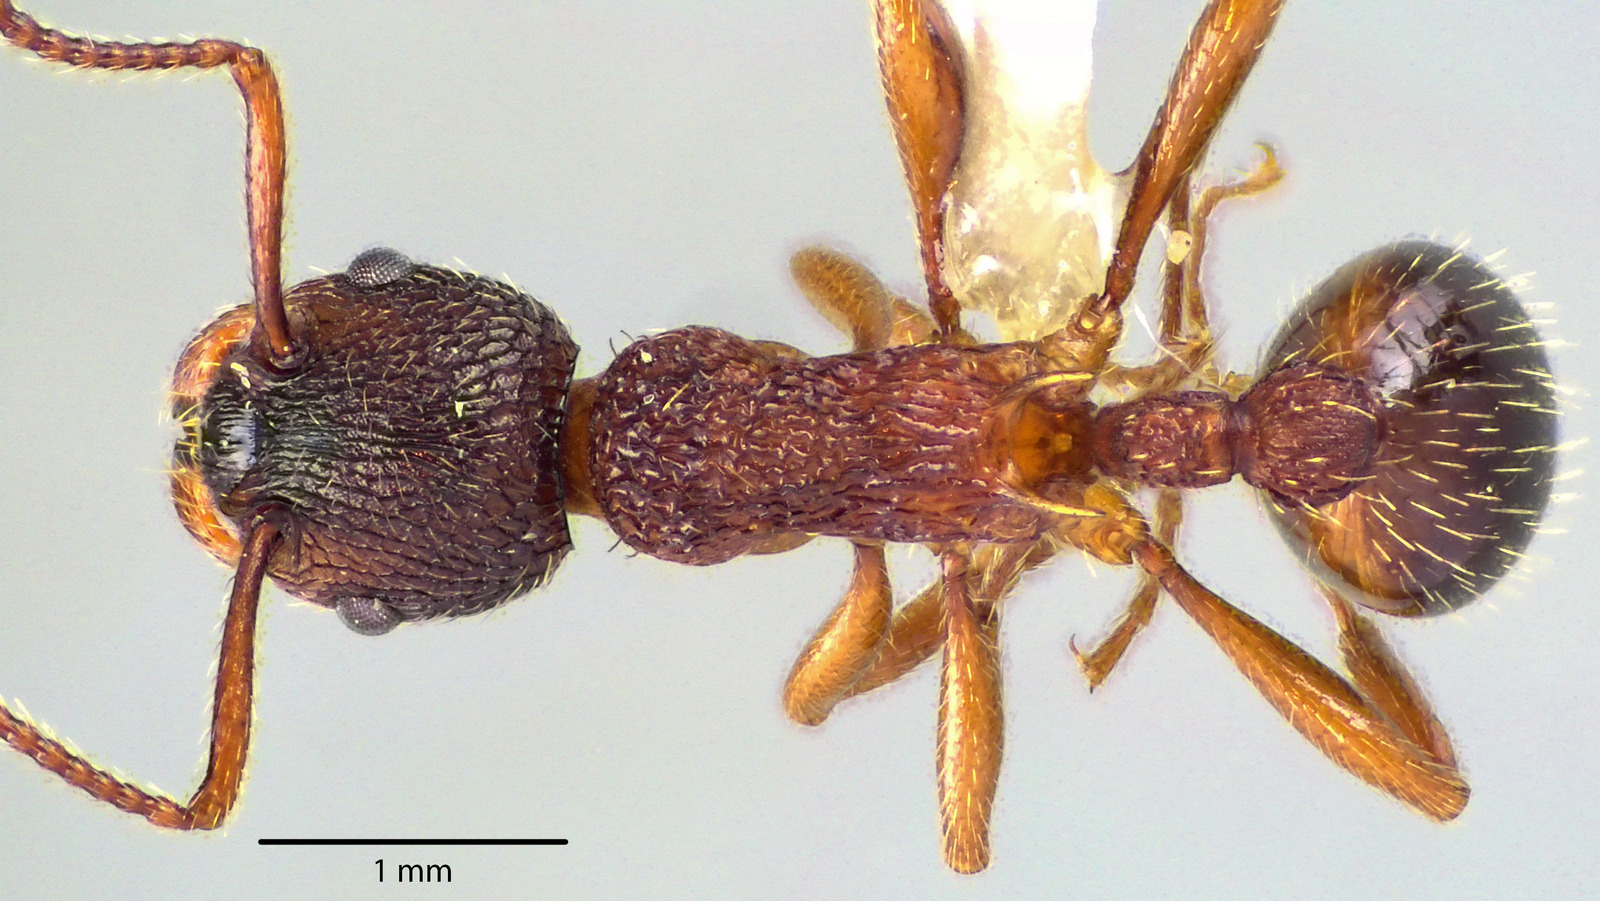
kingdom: Animalia
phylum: Arthropoda
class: Insecta
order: Hymenoptera
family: Formicidae
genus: Myrmica
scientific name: Myrmica americana
